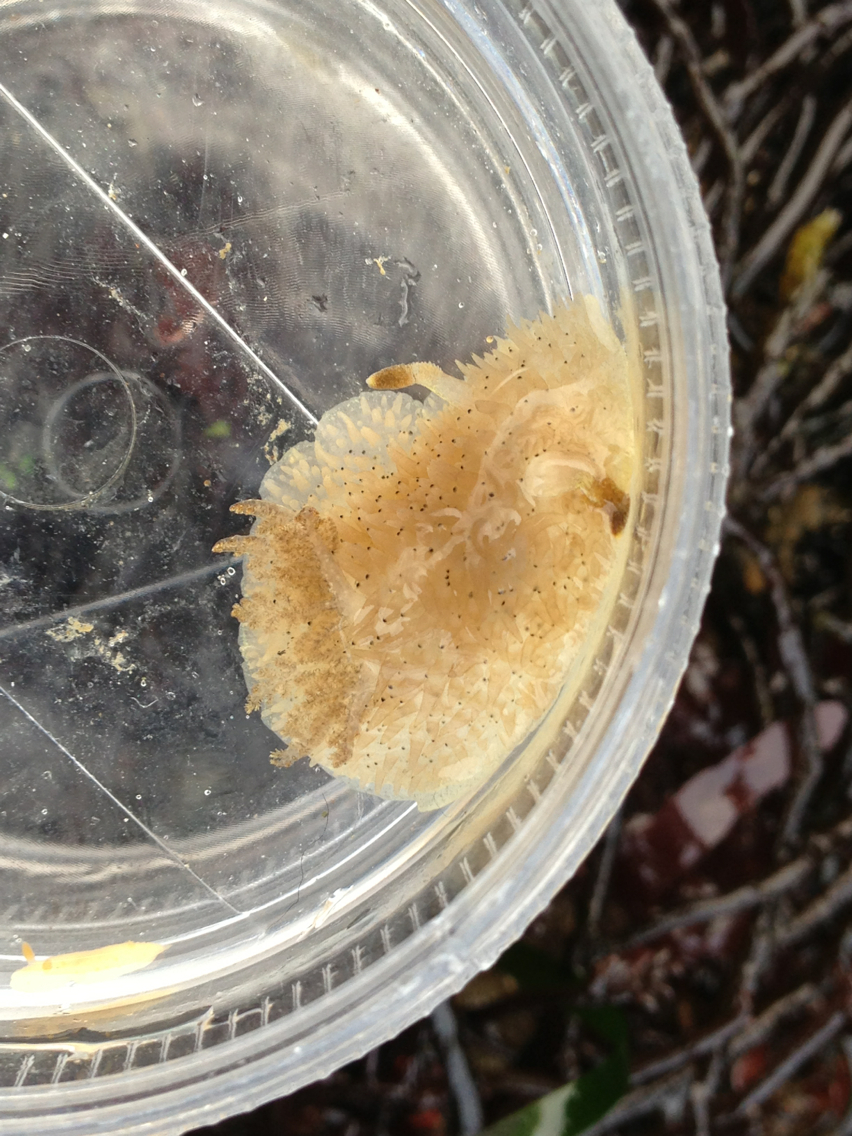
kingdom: Animalia
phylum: Mollusca
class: Gastropoda
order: Nudibranchia
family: Onchidorididae
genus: Acanthodoris
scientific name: Acanthodoris rhodoceras
